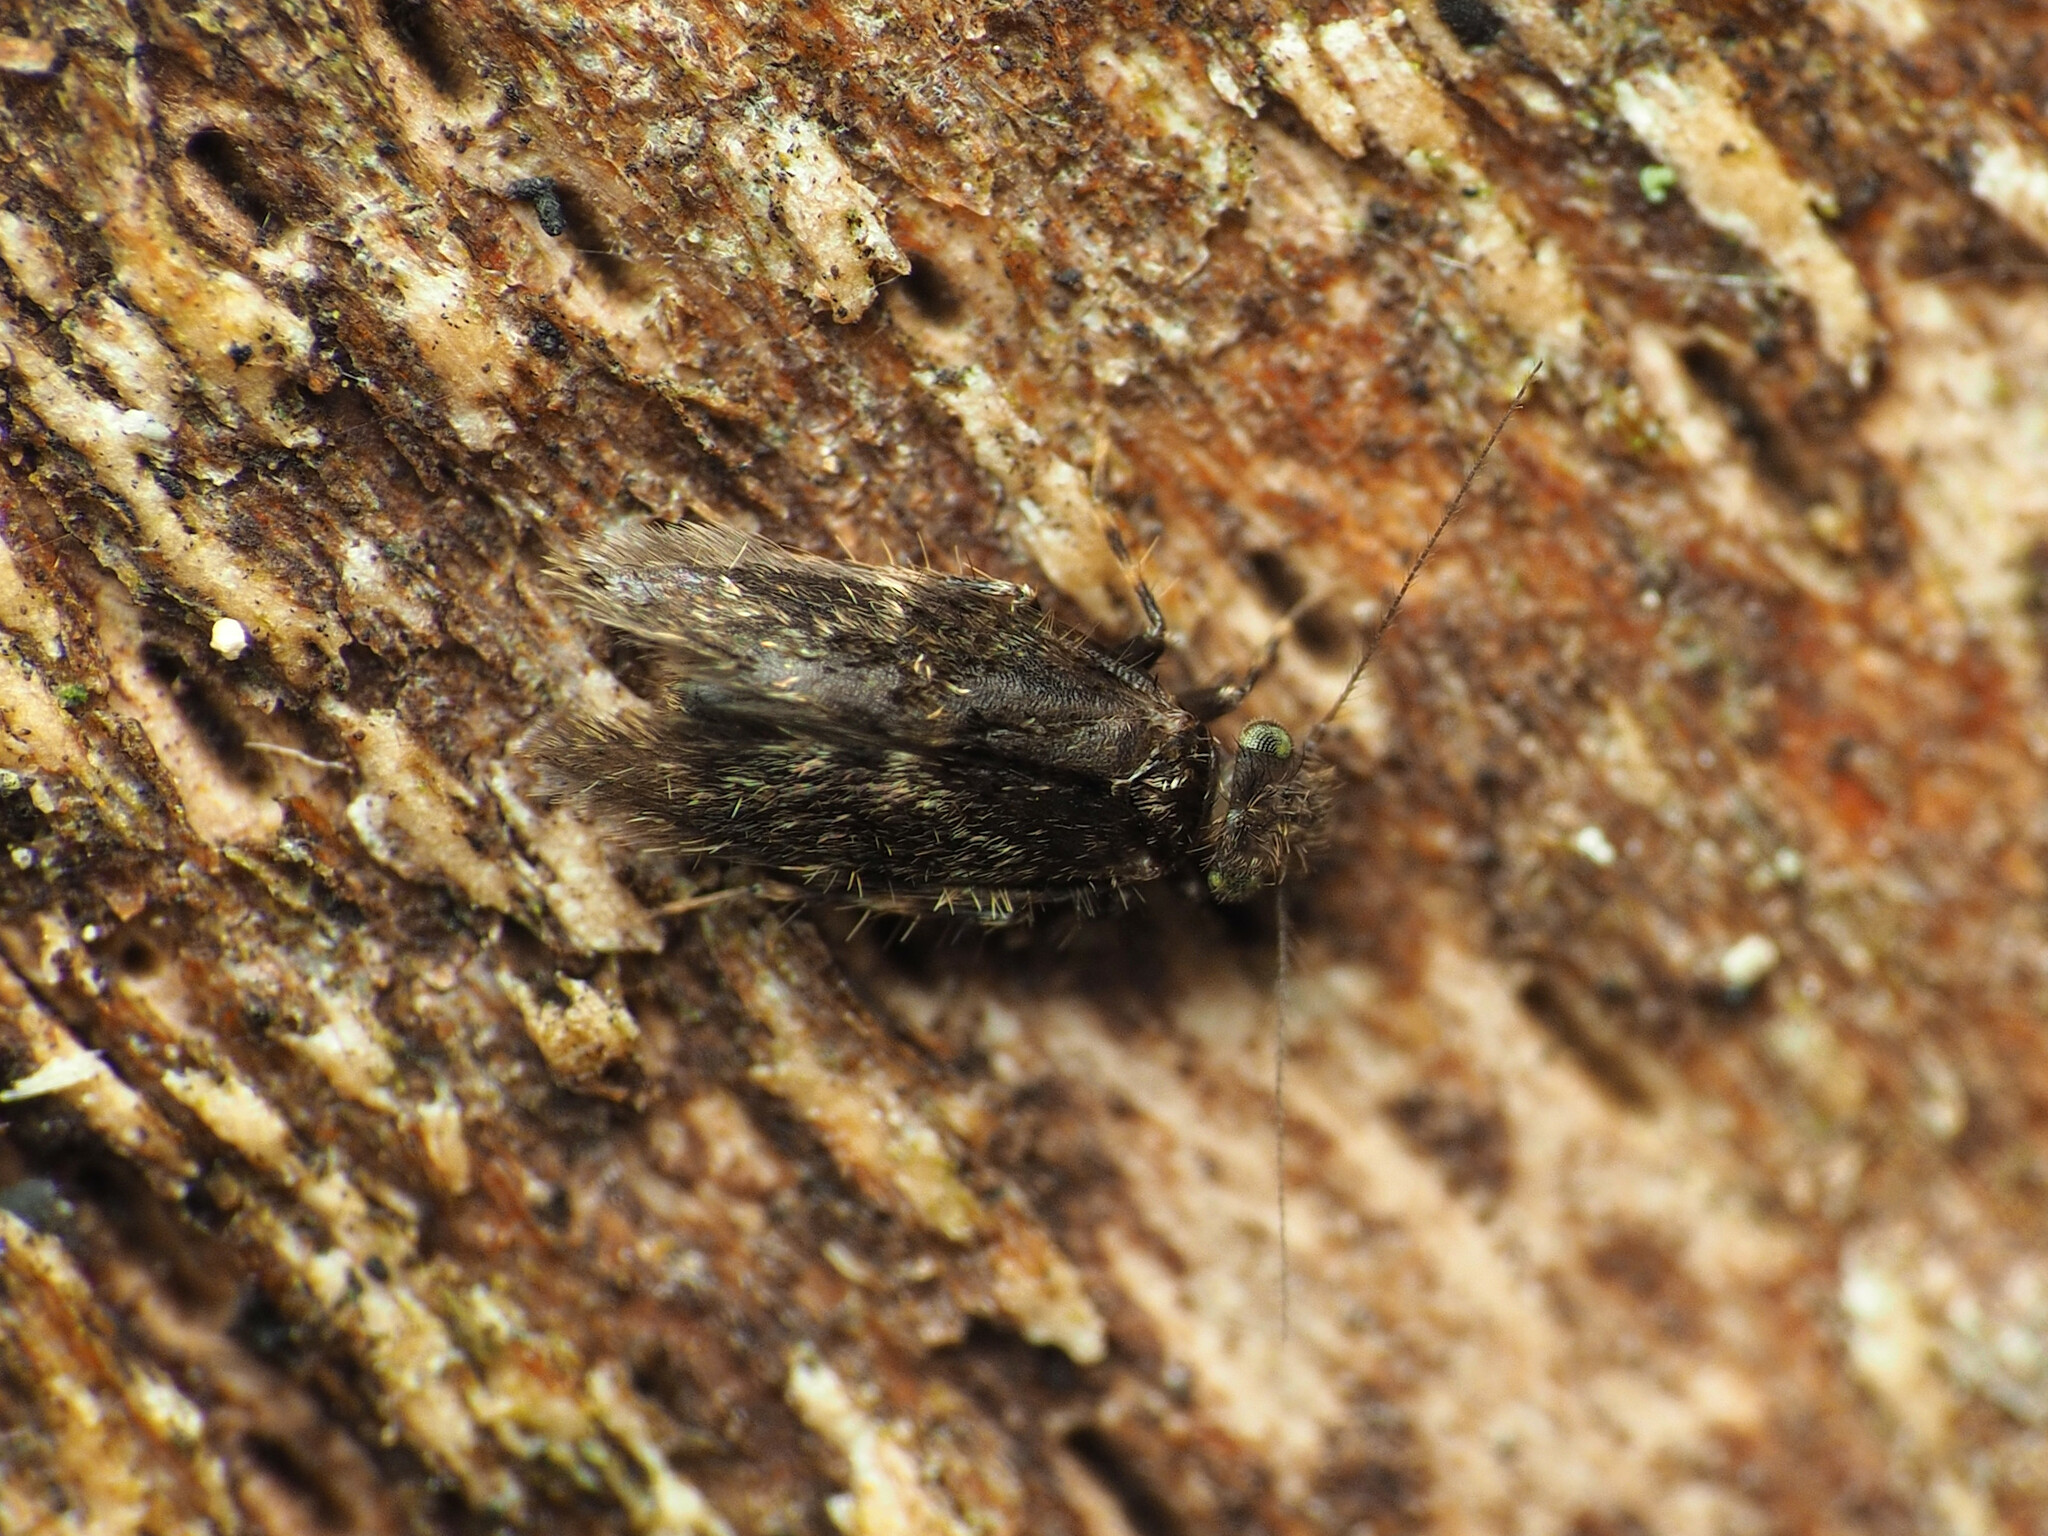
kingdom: Animalia
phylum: Arthropoda
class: Insecta
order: Psocodea
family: Lepidopsocidae
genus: Echmepteryx
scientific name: Echmepteryx hageni
